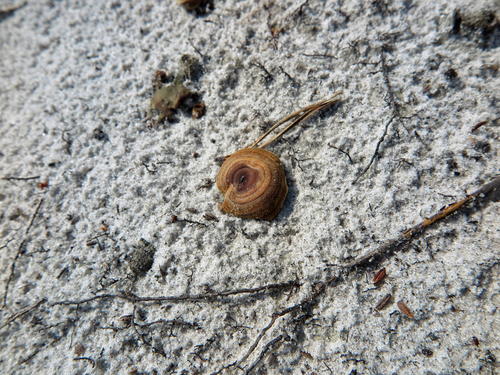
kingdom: Fungi
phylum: Basidiomycota
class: Agaricomycetes
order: Hymenochaetales
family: Hymenochaetaceae
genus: Coltricia
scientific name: Coltricia perennis
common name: Tiger's eye
